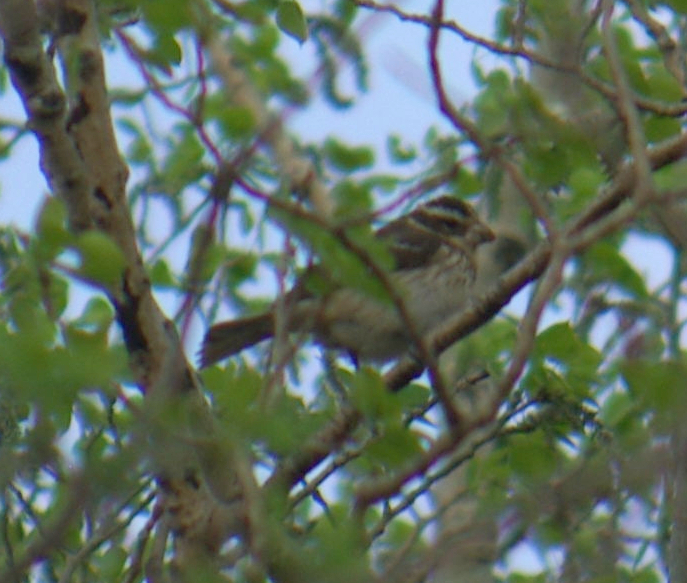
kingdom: Animalia
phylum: Chordata
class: Aves
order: Passeriformes
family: Cardinalidae
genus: Pheucticus
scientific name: Pheucticus ludovicianus
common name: Rose-breasted grosbeak
